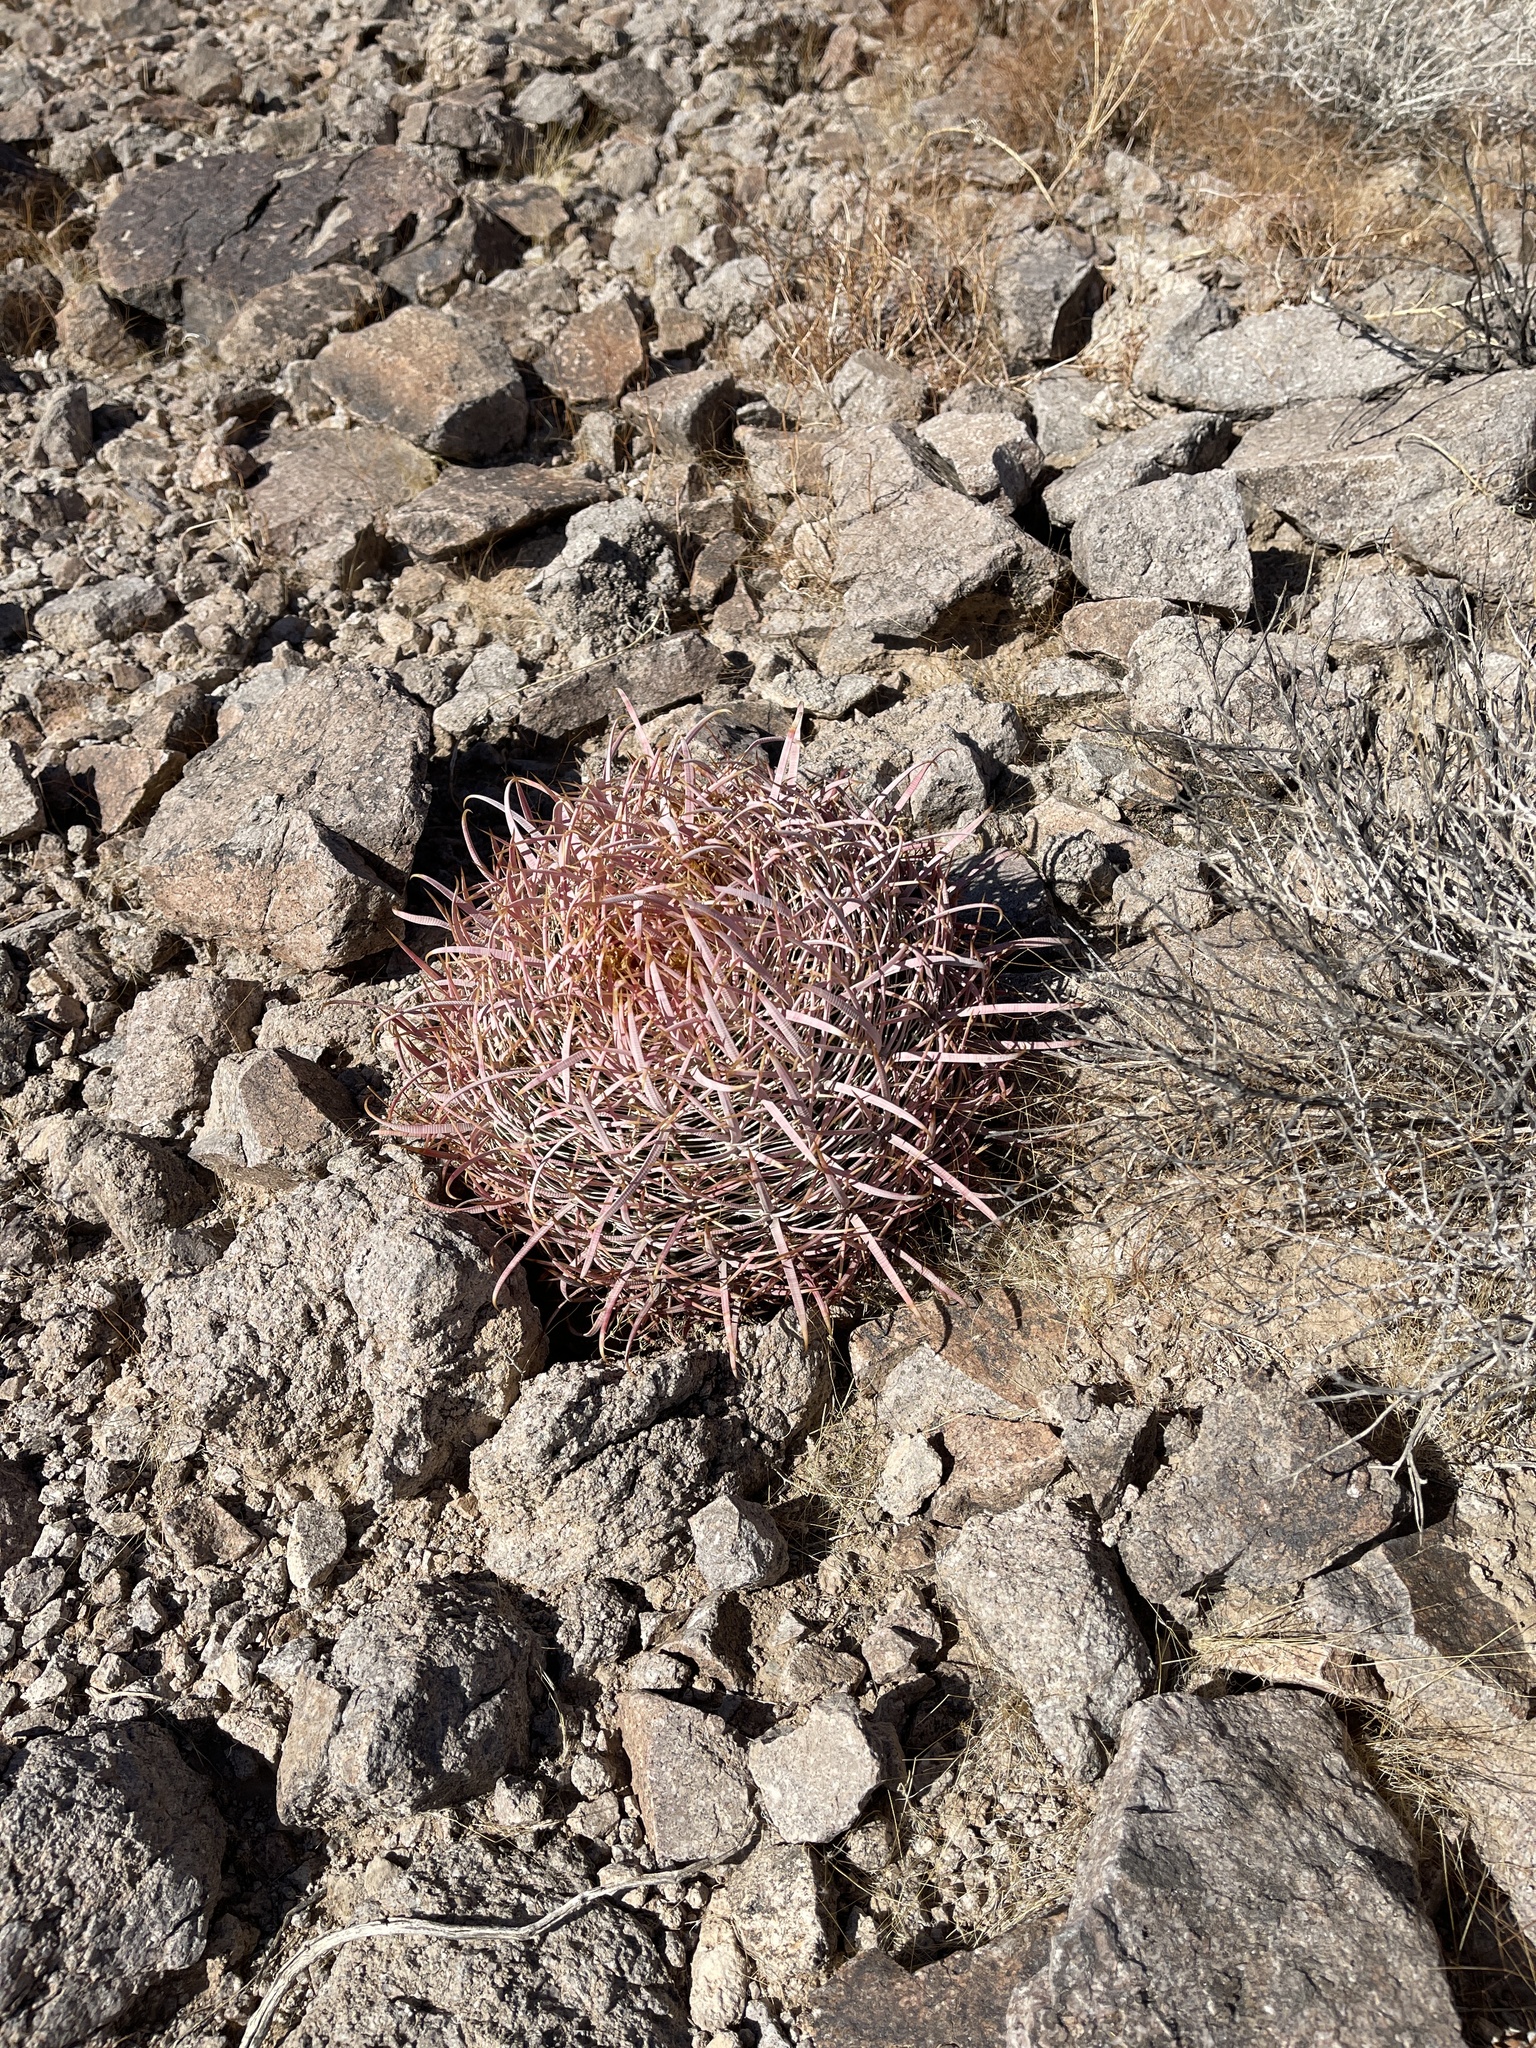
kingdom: Plantae
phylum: Tracheophyta
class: Magnoliopsida
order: Caryophyllales
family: Cactaceae
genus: Ferocactus
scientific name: Ferocactus cylindraceus
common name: California barrel cactus
